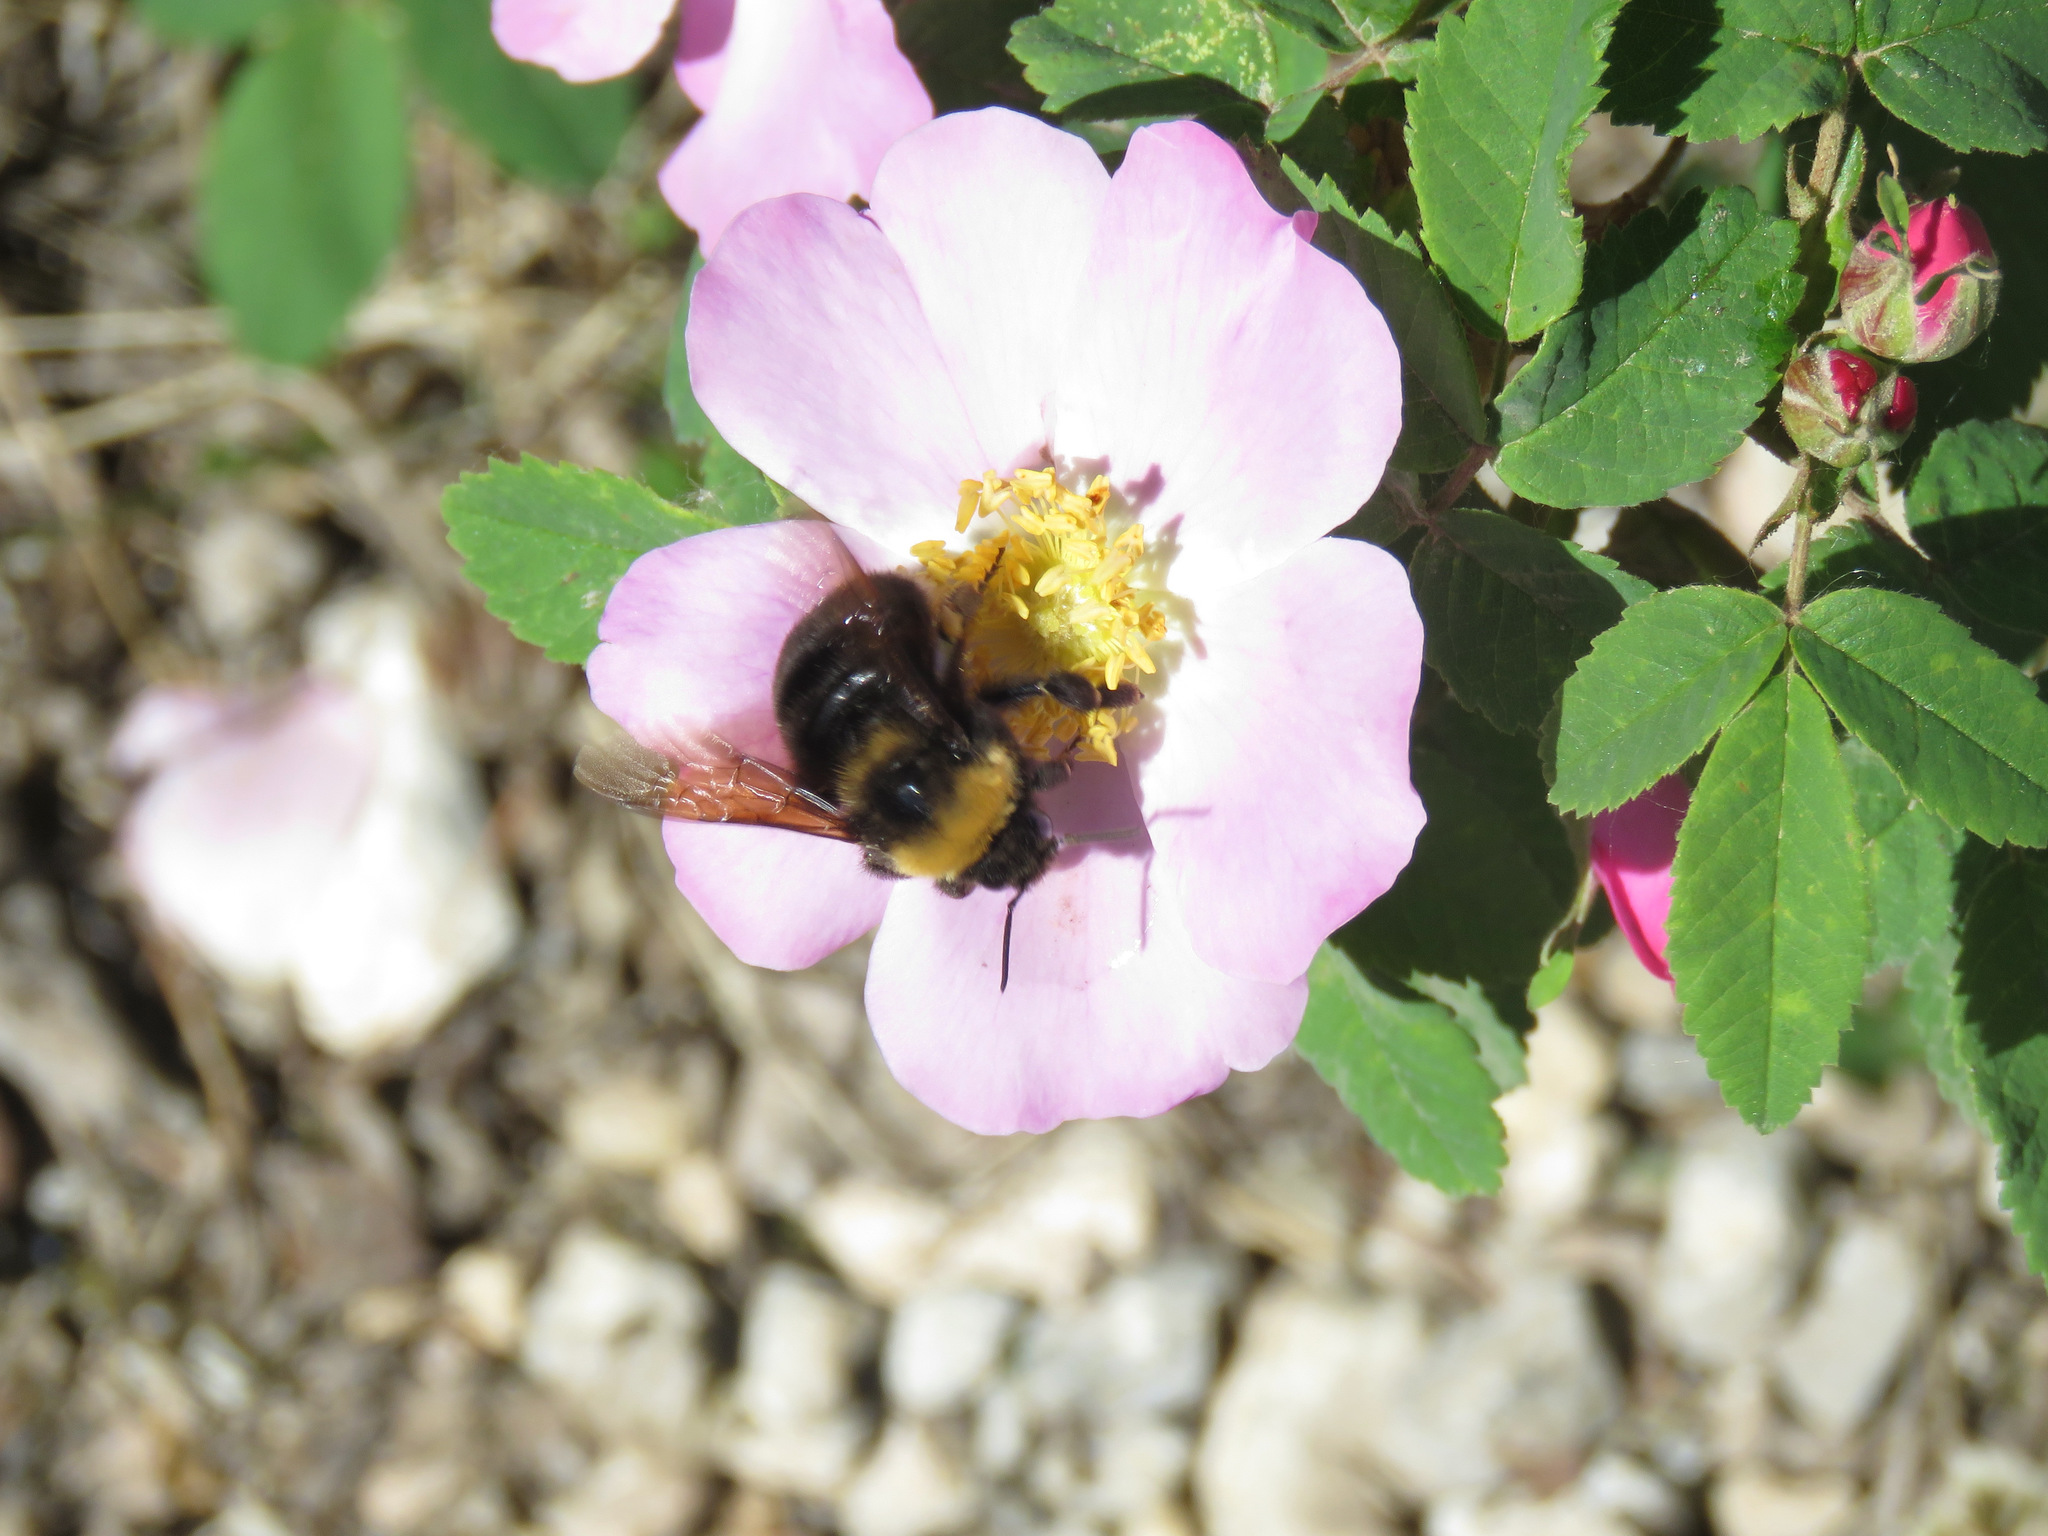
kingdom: Animalia
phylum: Arthropoda
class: Insecta
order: Hymenoptera
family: Apidae
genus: Bombus
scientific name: Bombus occidentalis
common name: Western bumble bee
